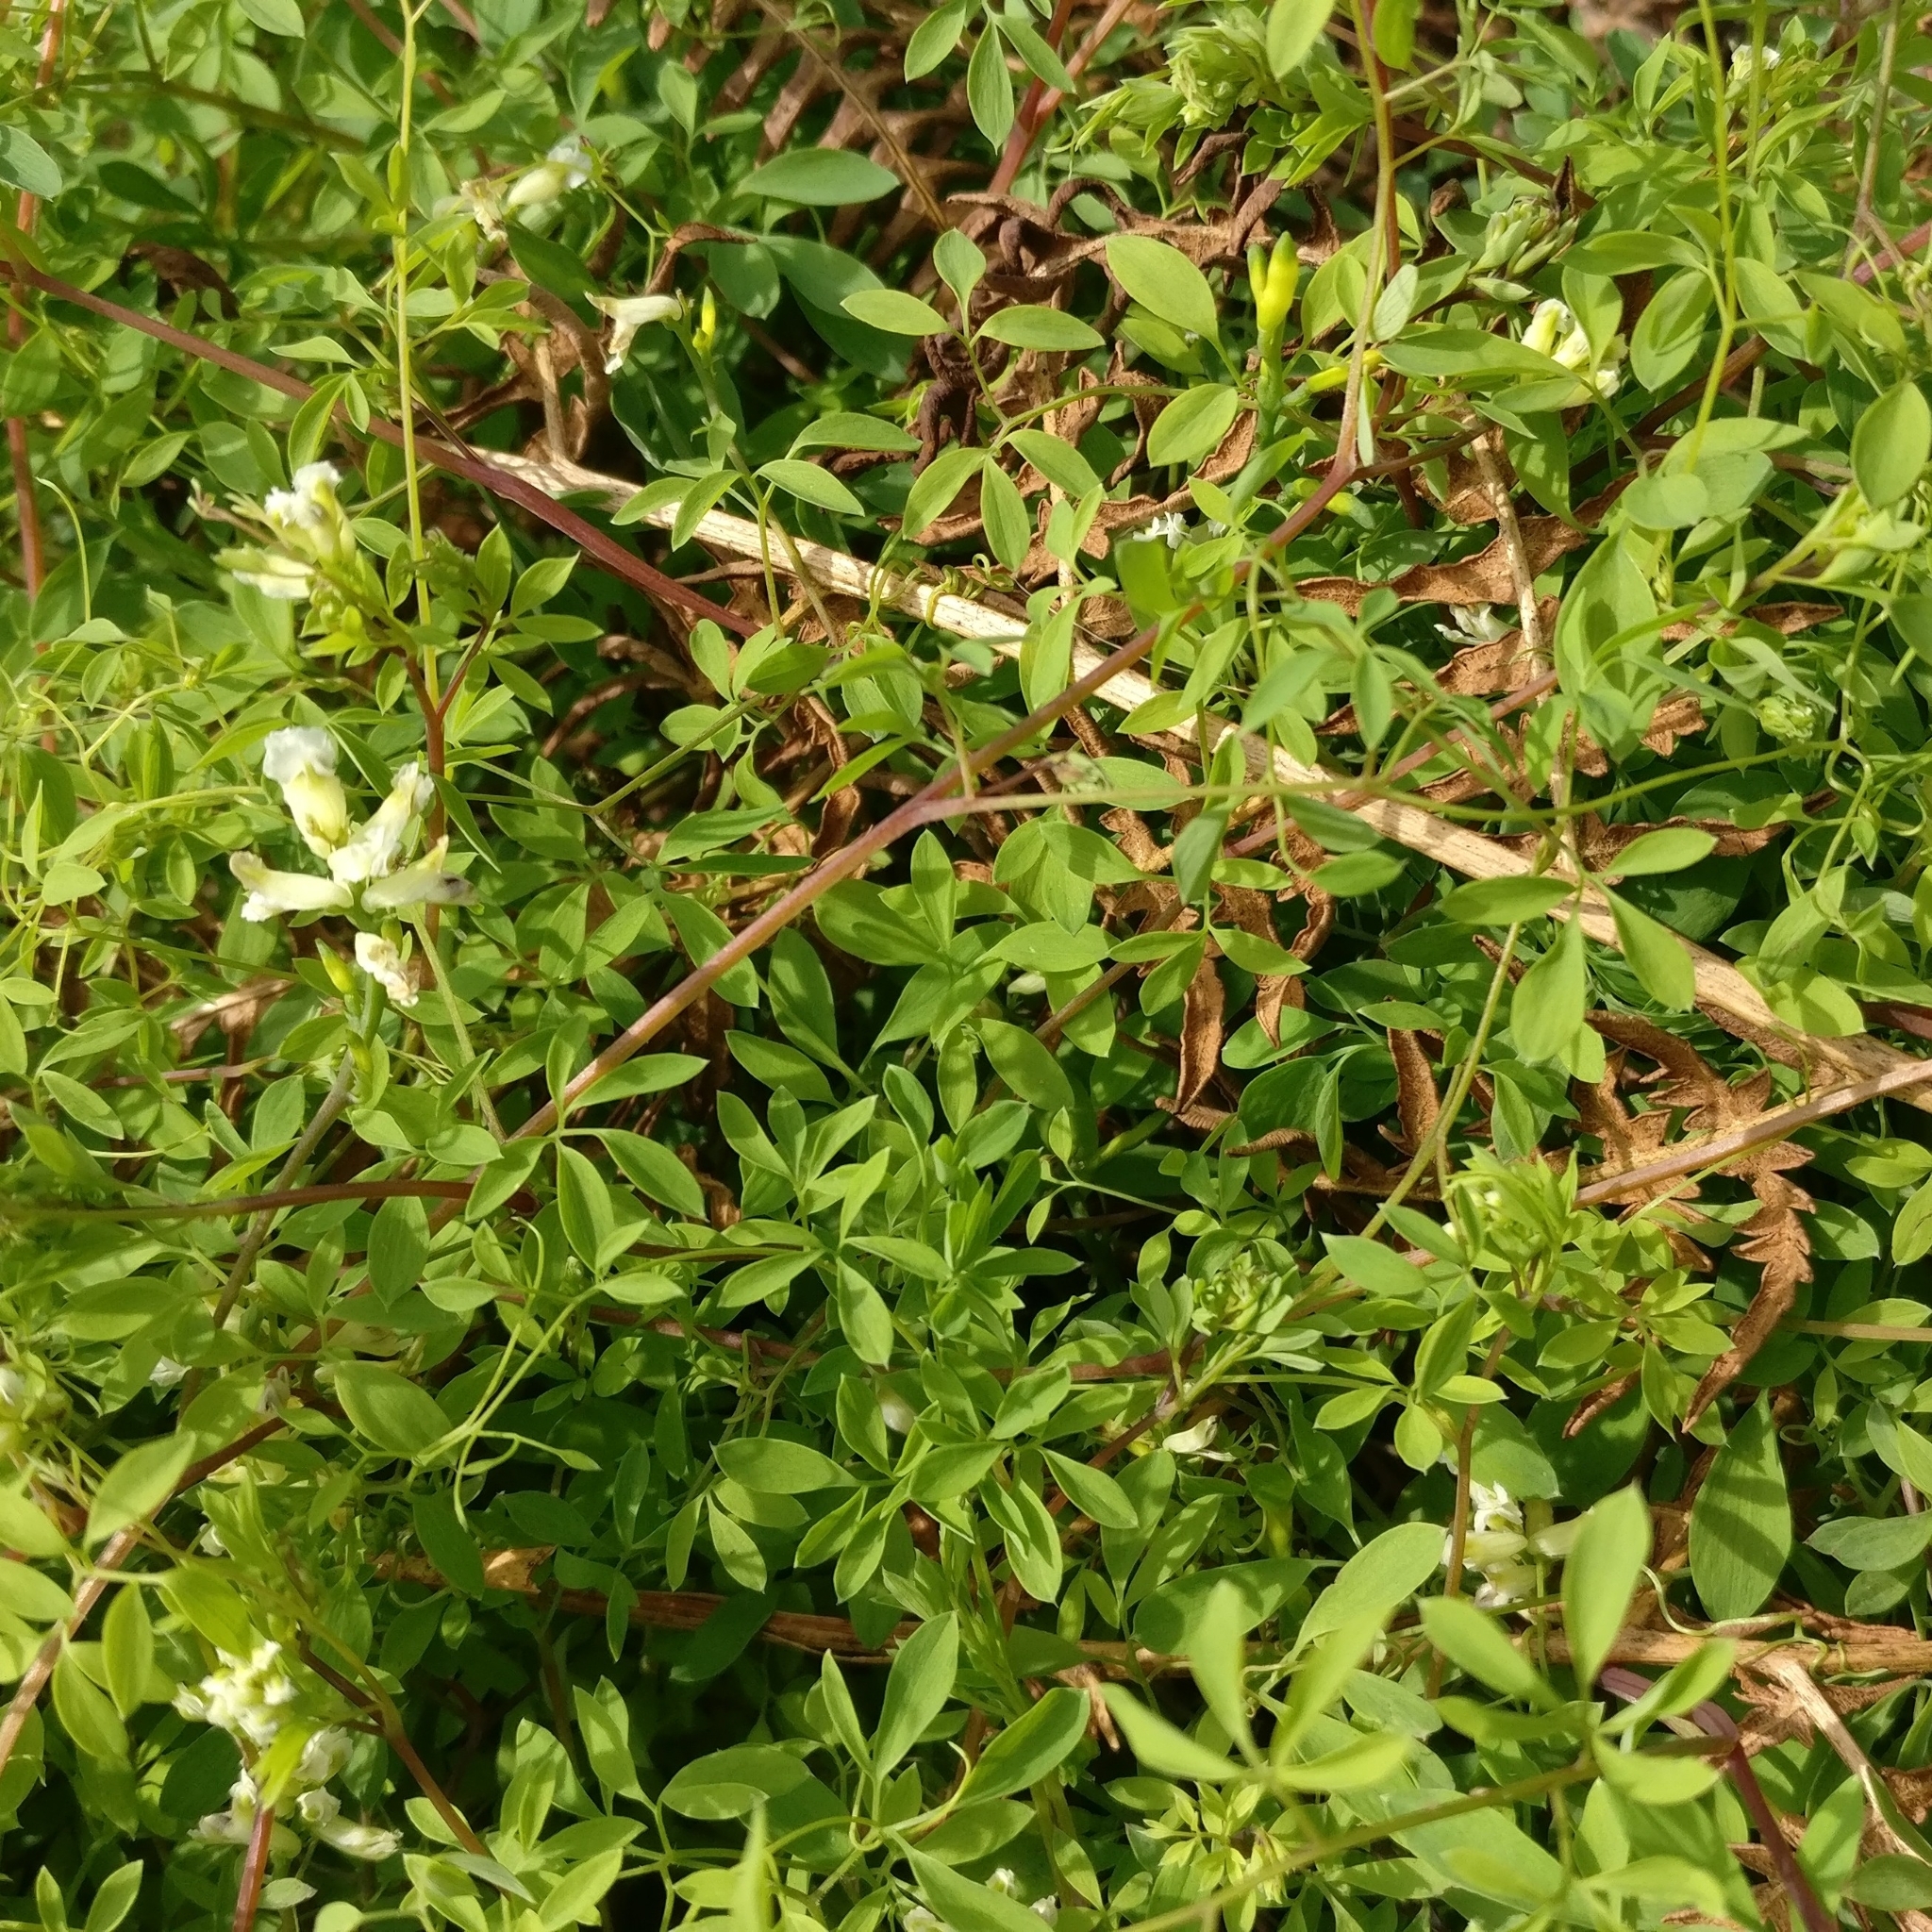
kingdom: Plantae
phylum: Tracheophyta
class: Magnoliopsida
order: Ranunculales
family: Papaveraceae
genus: Ceratocapnos
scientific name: Ceratocapnos claviculata
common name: Climbing corydalis
